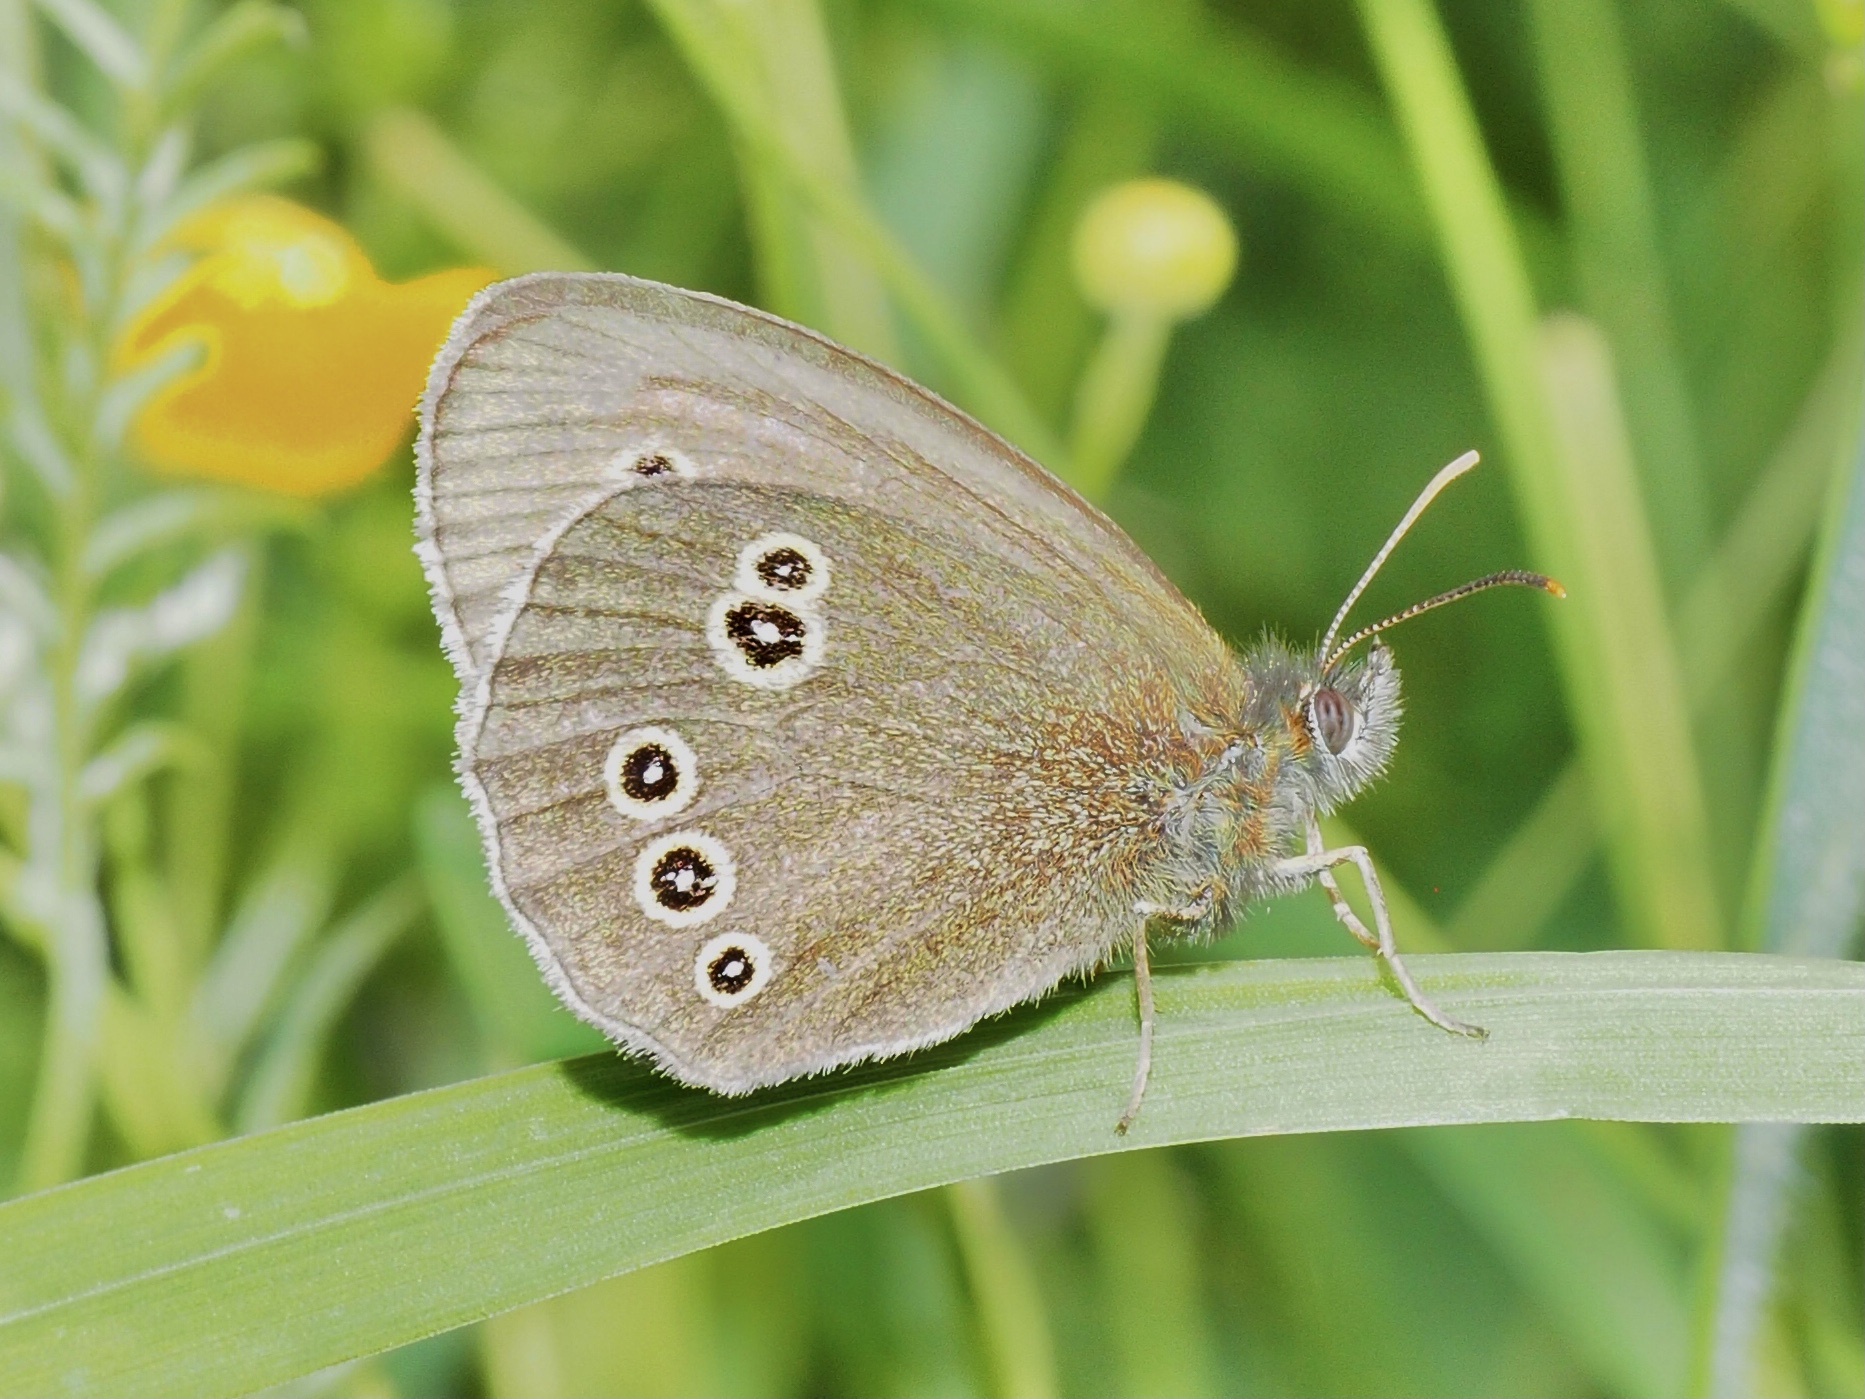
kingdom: Animalia
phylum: Arthropoda
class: Insecta
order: Lepidoptera
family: Nymphalidae
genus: Aphantopus
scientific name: Aphantopus hyperantus
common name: Ringlet
